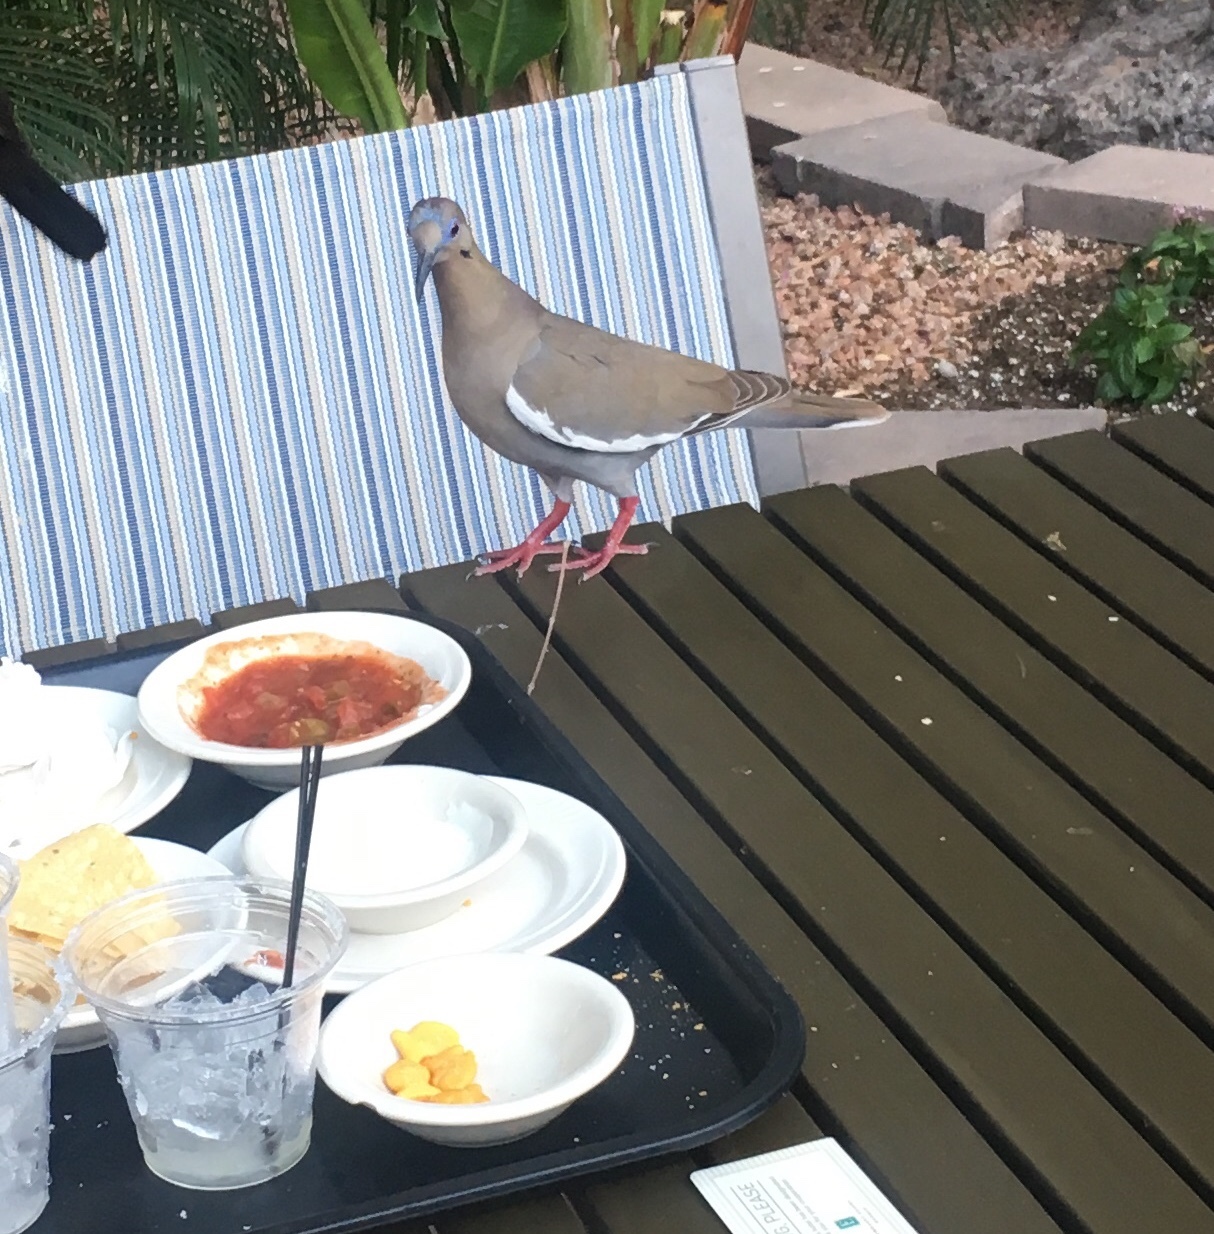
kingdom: Animalia
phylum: Chordata
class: Aves
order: Columbiformes
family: Columbidae
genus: Zenaida
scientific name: Zenaida asiatica
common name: White-winged dove
